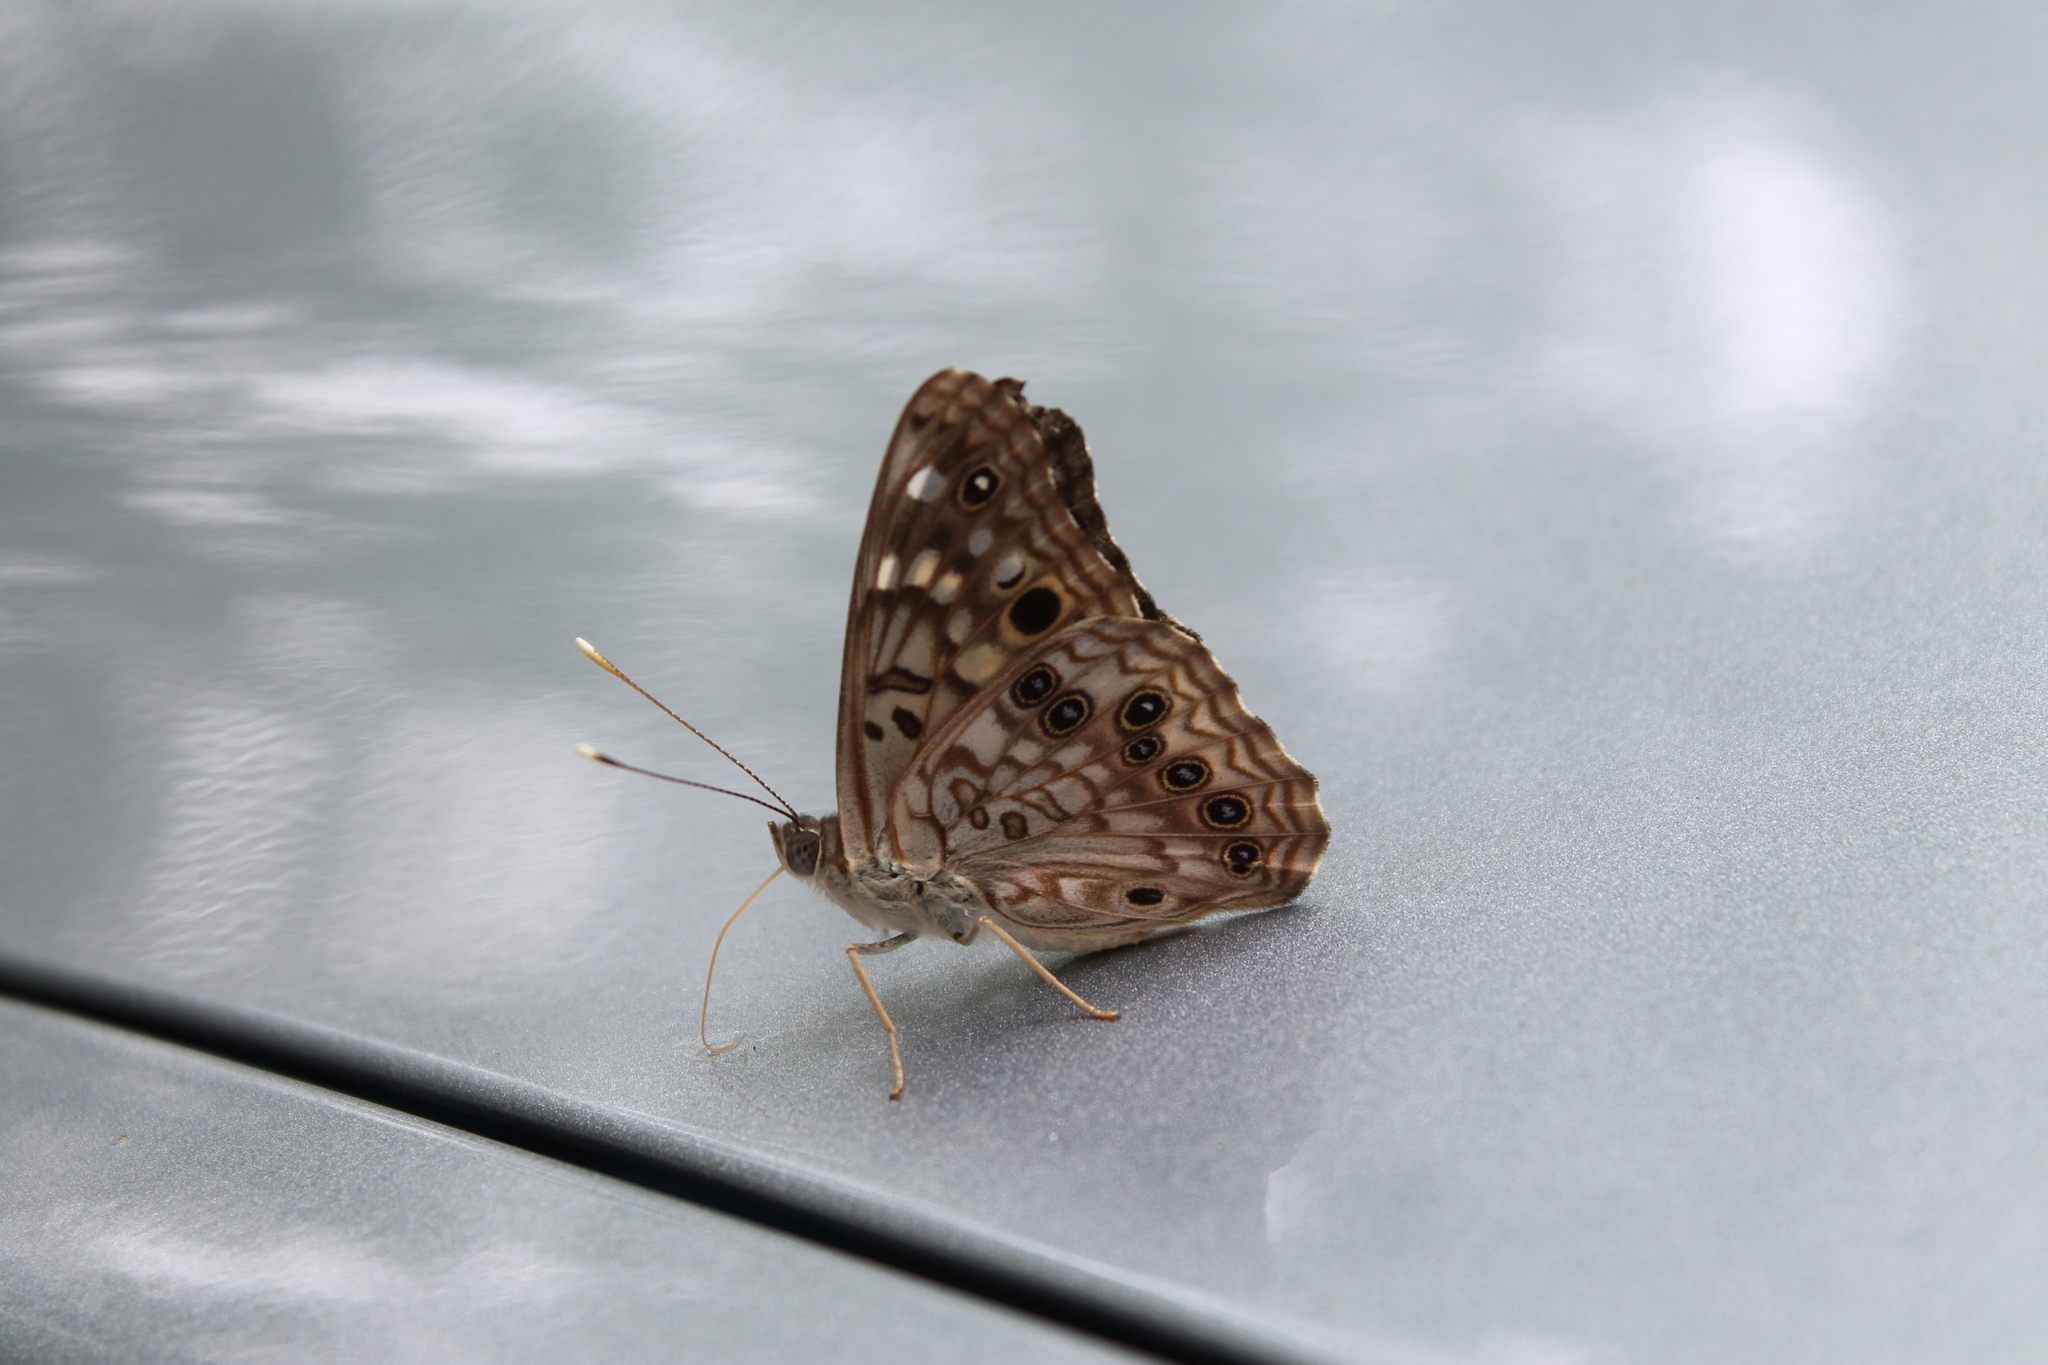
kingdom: Animalia
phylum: Arthropoda
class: Insecta
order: Lepidoptera
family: Nymphalidae
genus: Asterocampa
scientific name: Asterocampa celtis
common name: Hackberry emperor
